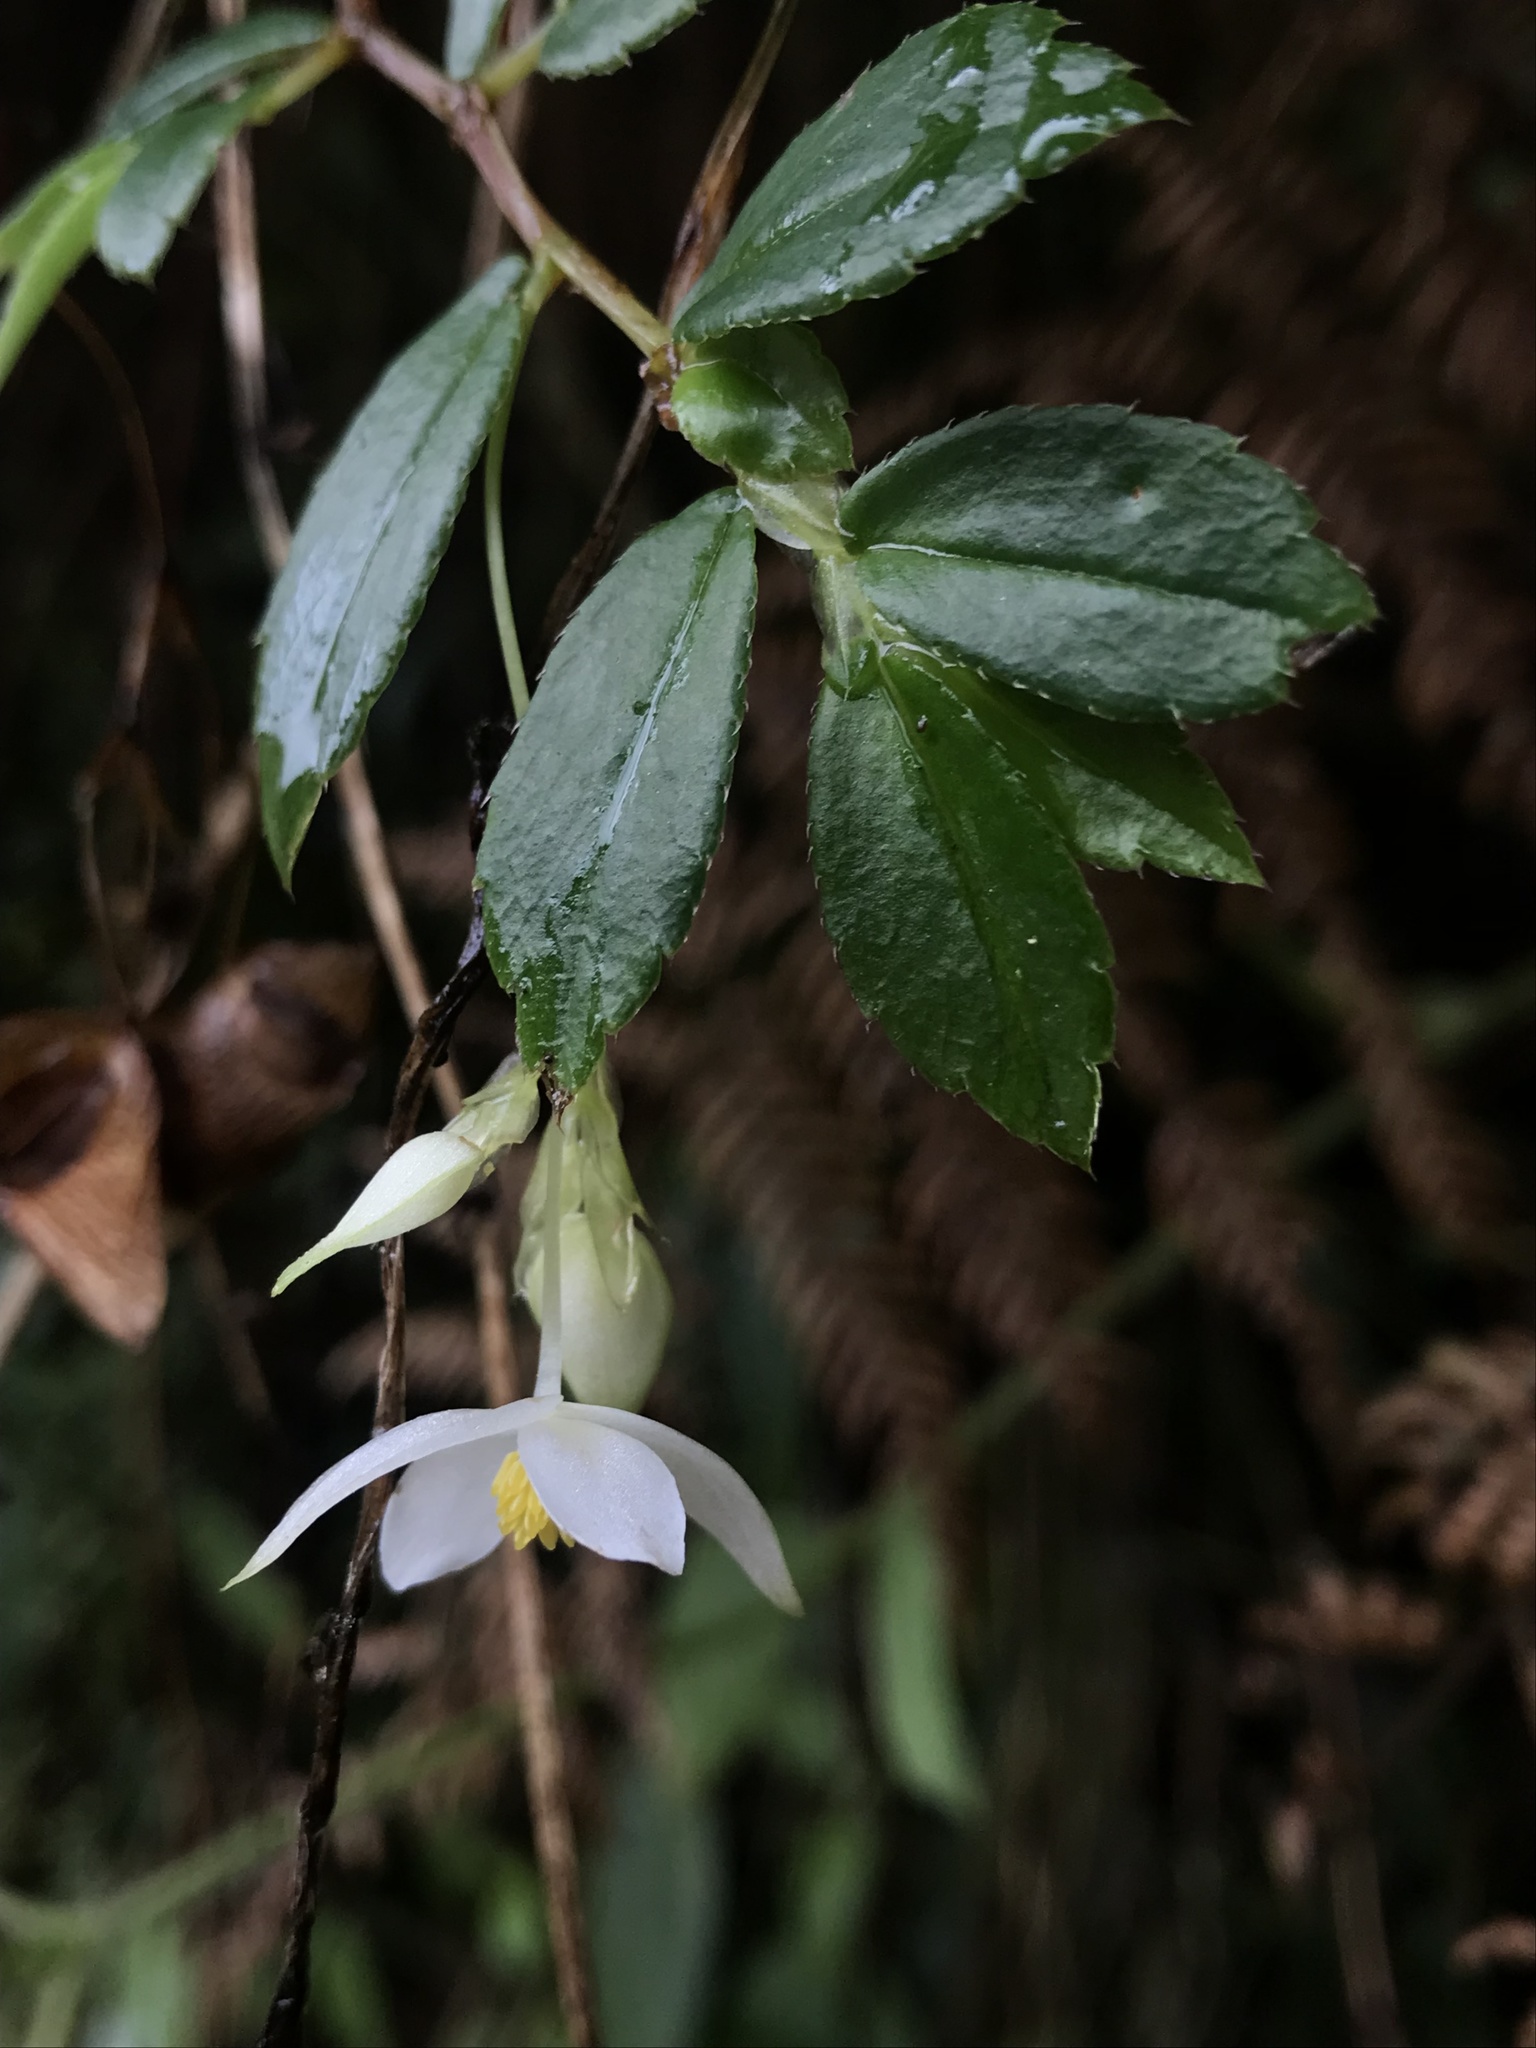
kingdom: Plantae
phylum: Tracheophyta
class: Magnoliopsida
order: Cucurbitales
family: Begoniaceae
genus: Begonia
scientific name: Begonia foliosa
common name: Fern begonia
